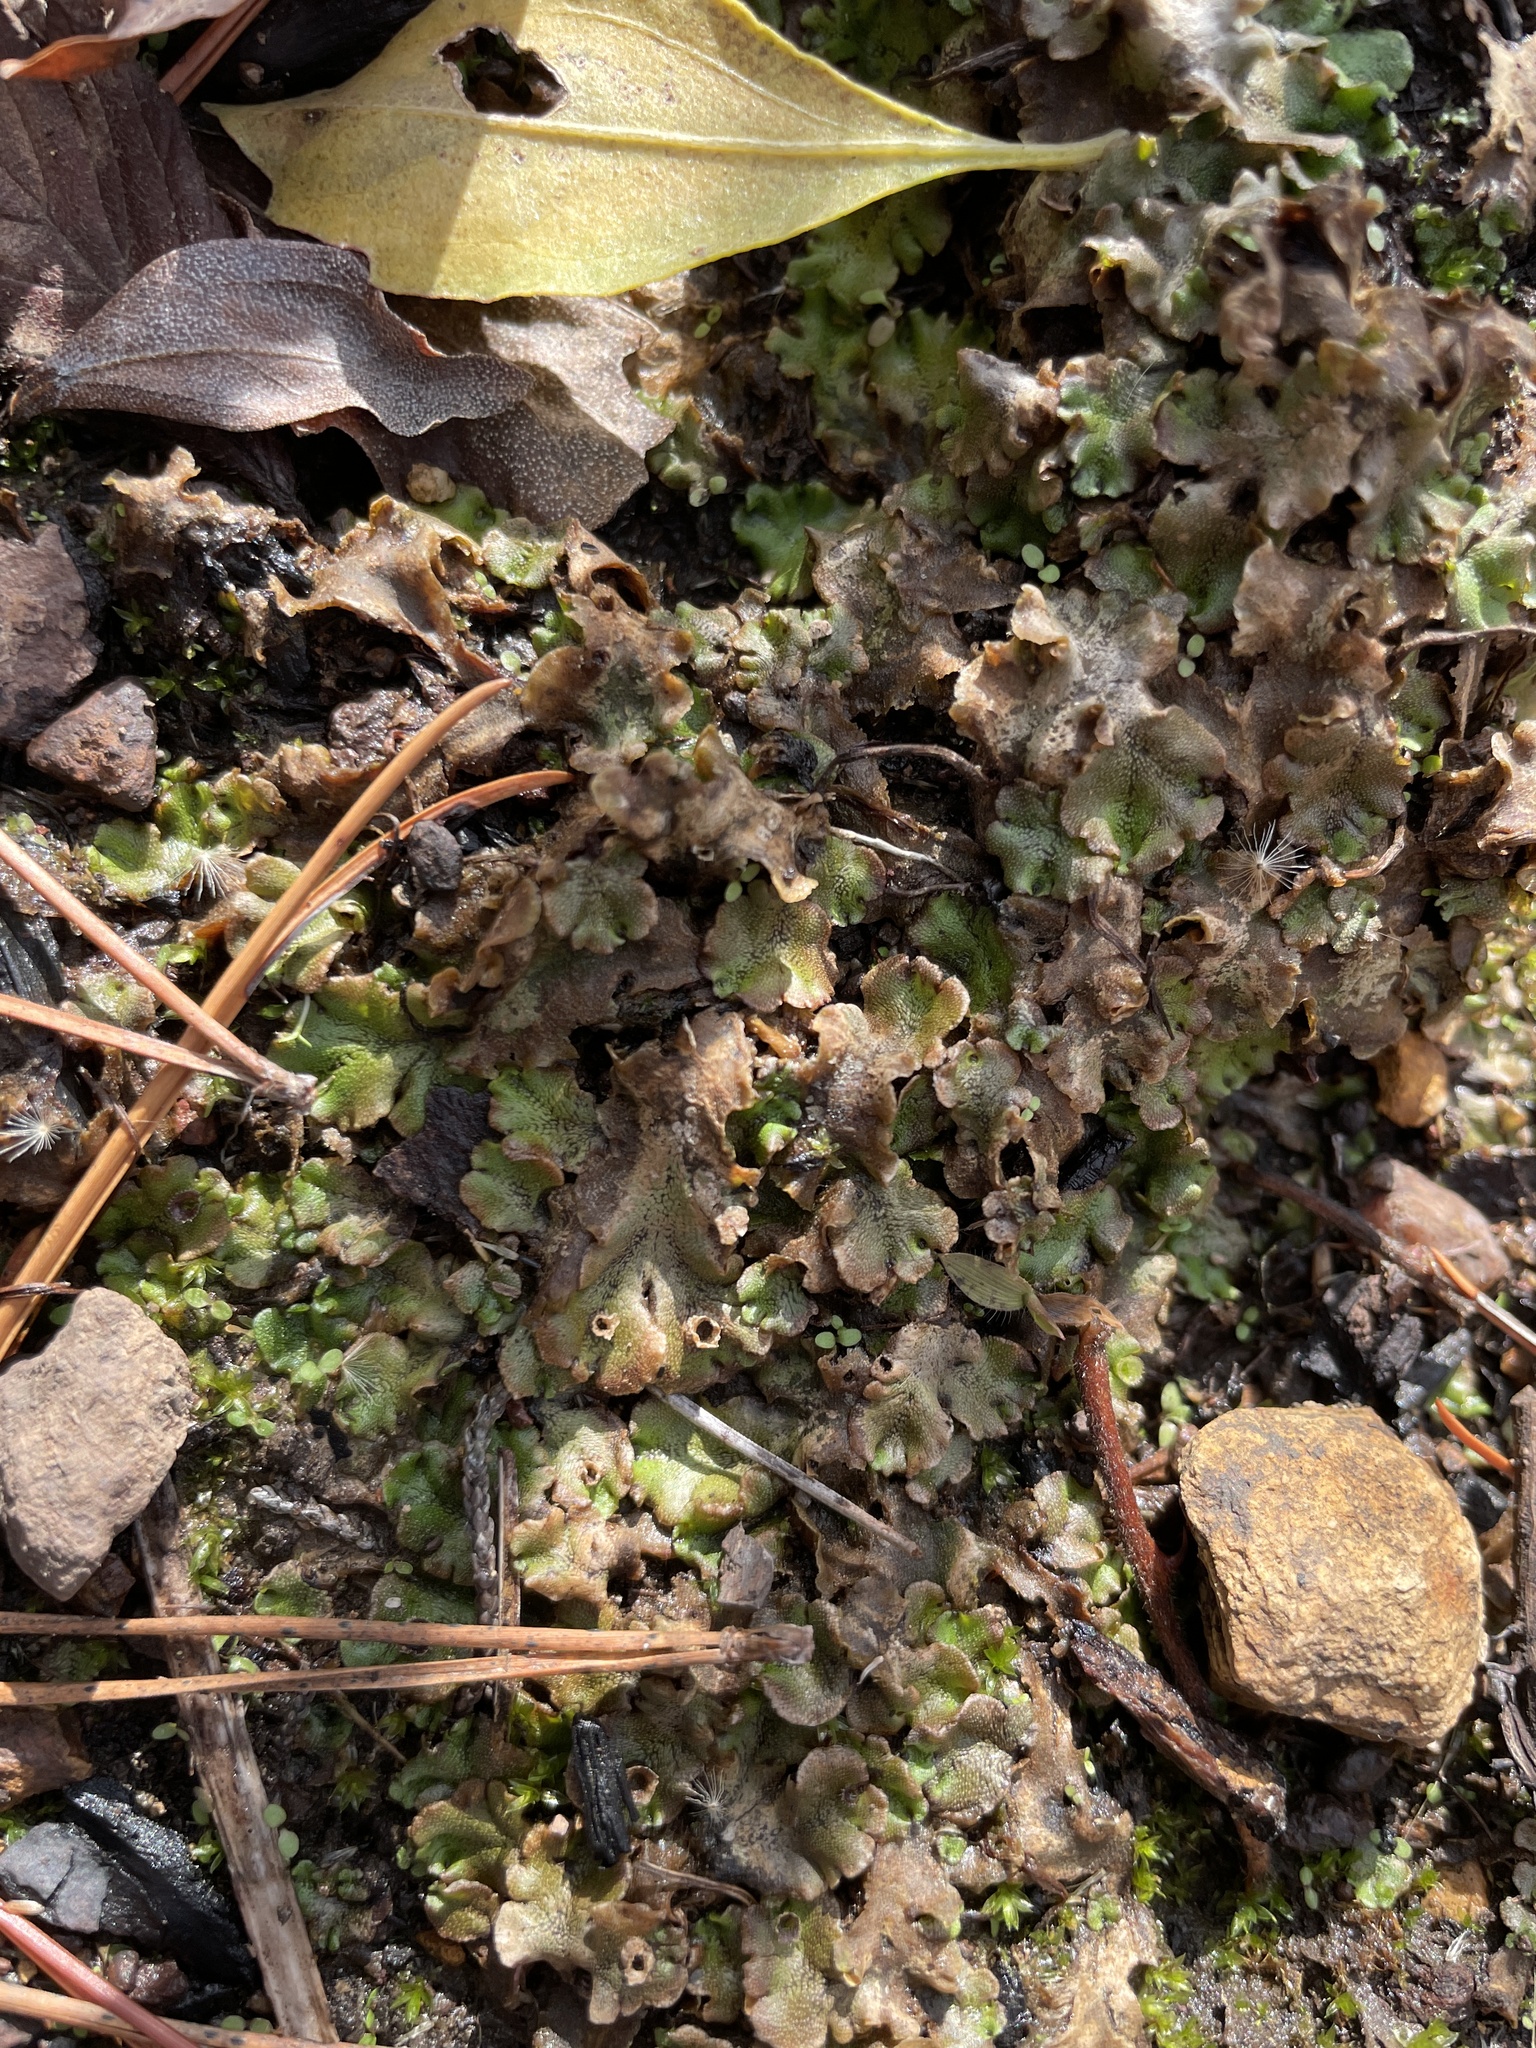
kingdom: Plantae
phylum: Marchantiophyta
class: Marchantiopsida
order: Marchantiales
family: Marchantiaceae
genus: Marchantia
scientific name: Marchantia polymorpha
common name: Common liverwort
